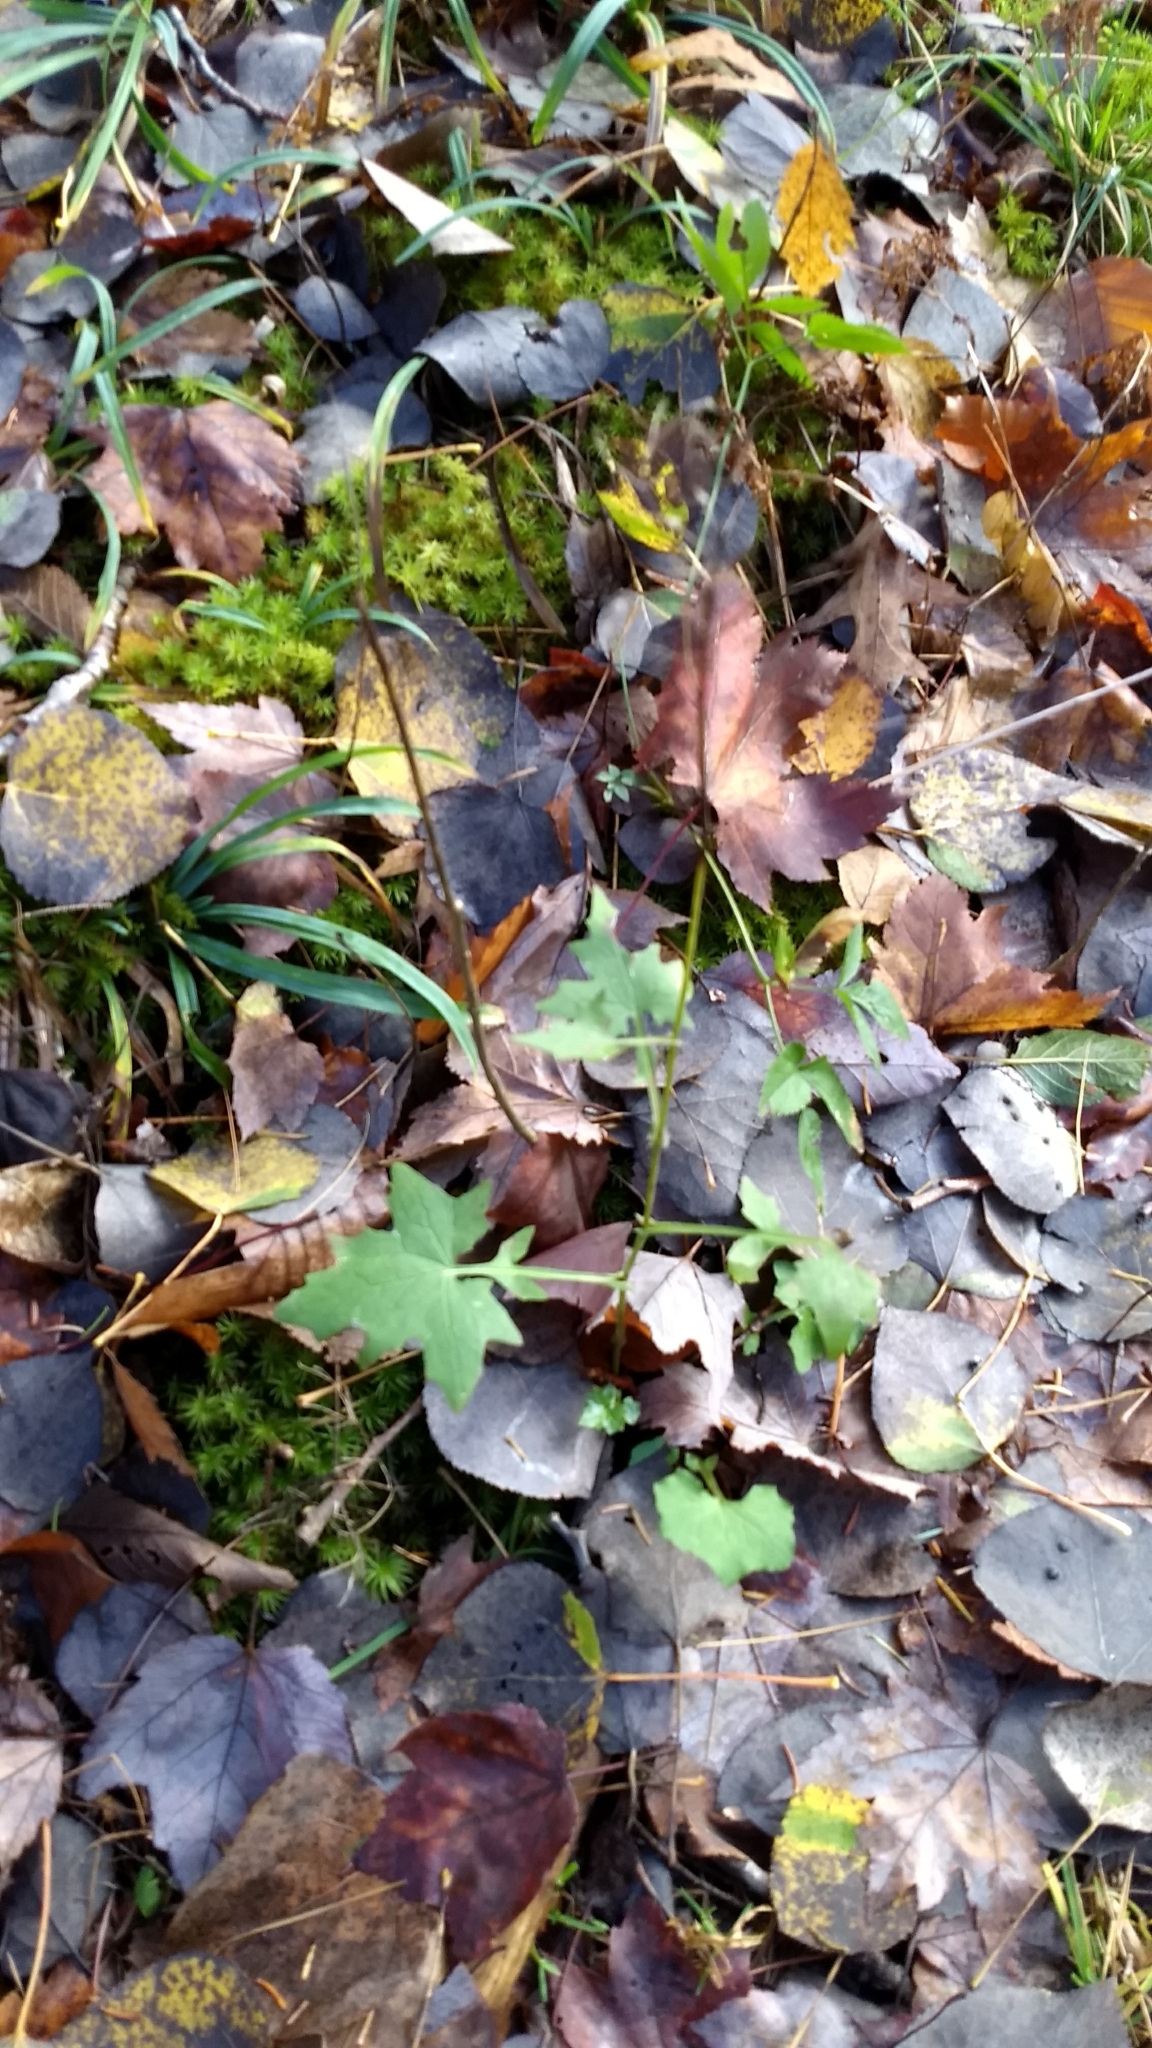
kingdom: Plantae
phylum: Tracheophyta
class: Magnoliopsida
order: Asterales
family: Asteraceae
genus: Mycelis
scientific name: Mycelis muralis
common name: Wall lettuce
